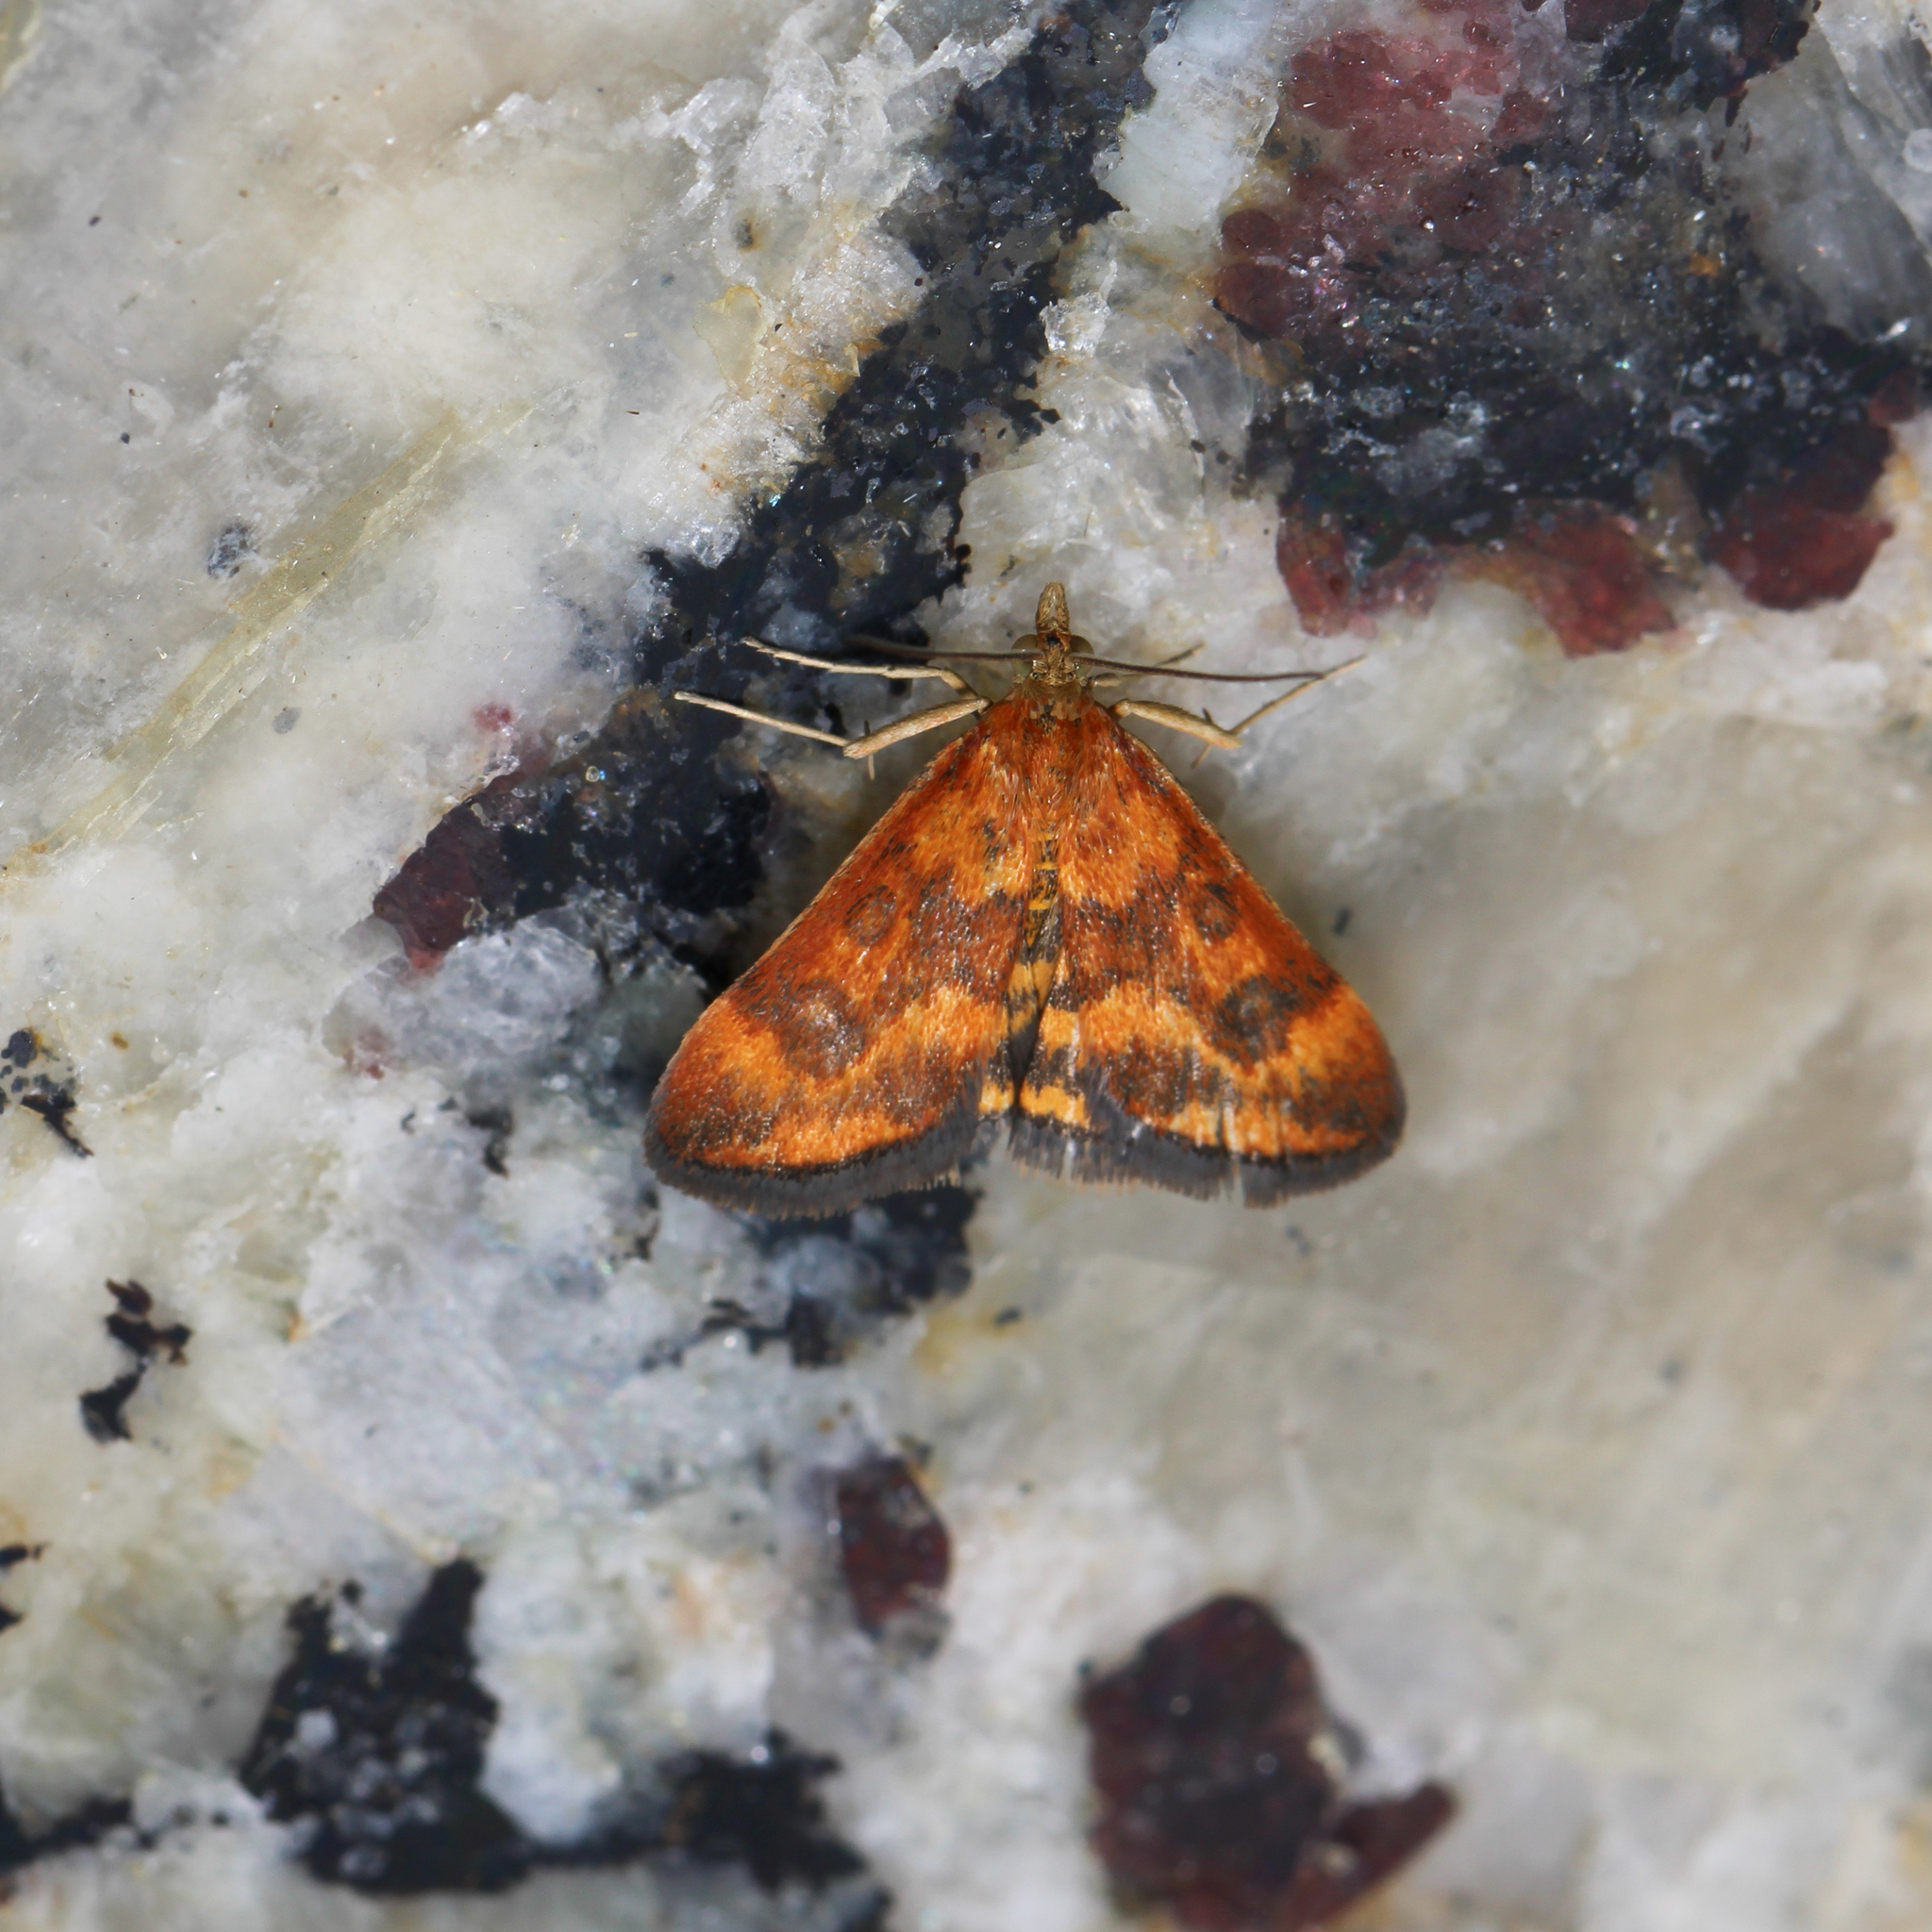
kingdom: Animalia
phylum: Arthropoda
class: Insecta
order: Lepidoptera
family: Crambidae
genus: Pyrausta
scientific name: Pyrausta subsequalis
